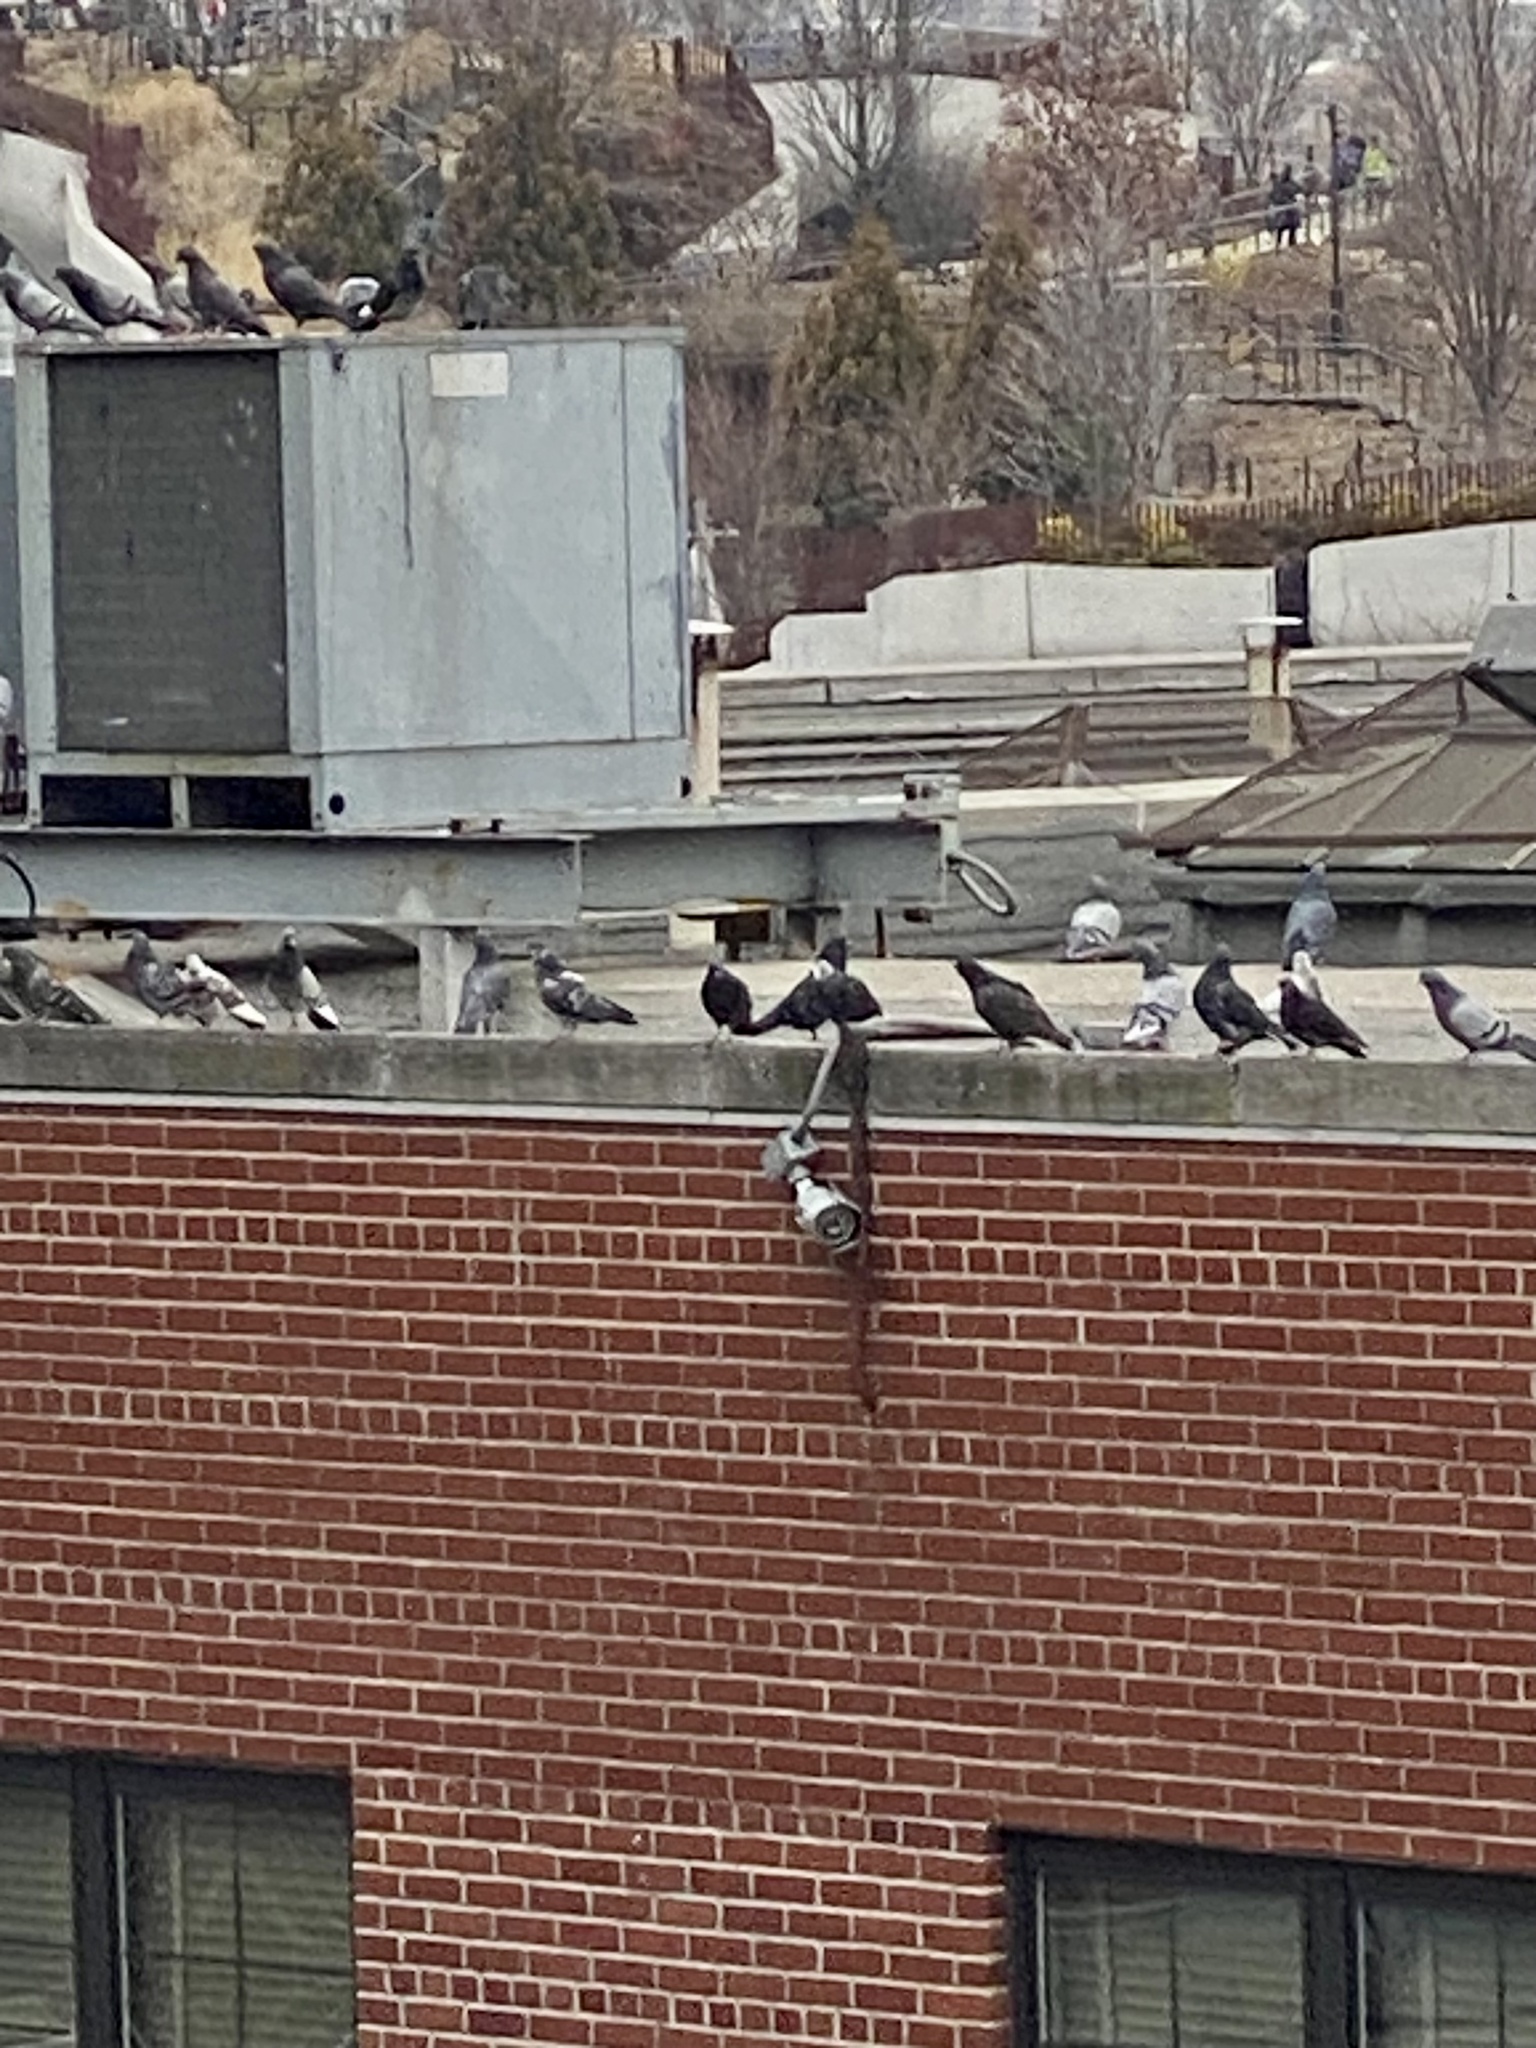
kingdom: Animalia
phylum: Chordata
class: Aves
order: Columbiformes
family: Columbidae
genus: Columba
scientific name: Columba livia
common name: Rock pigeon
